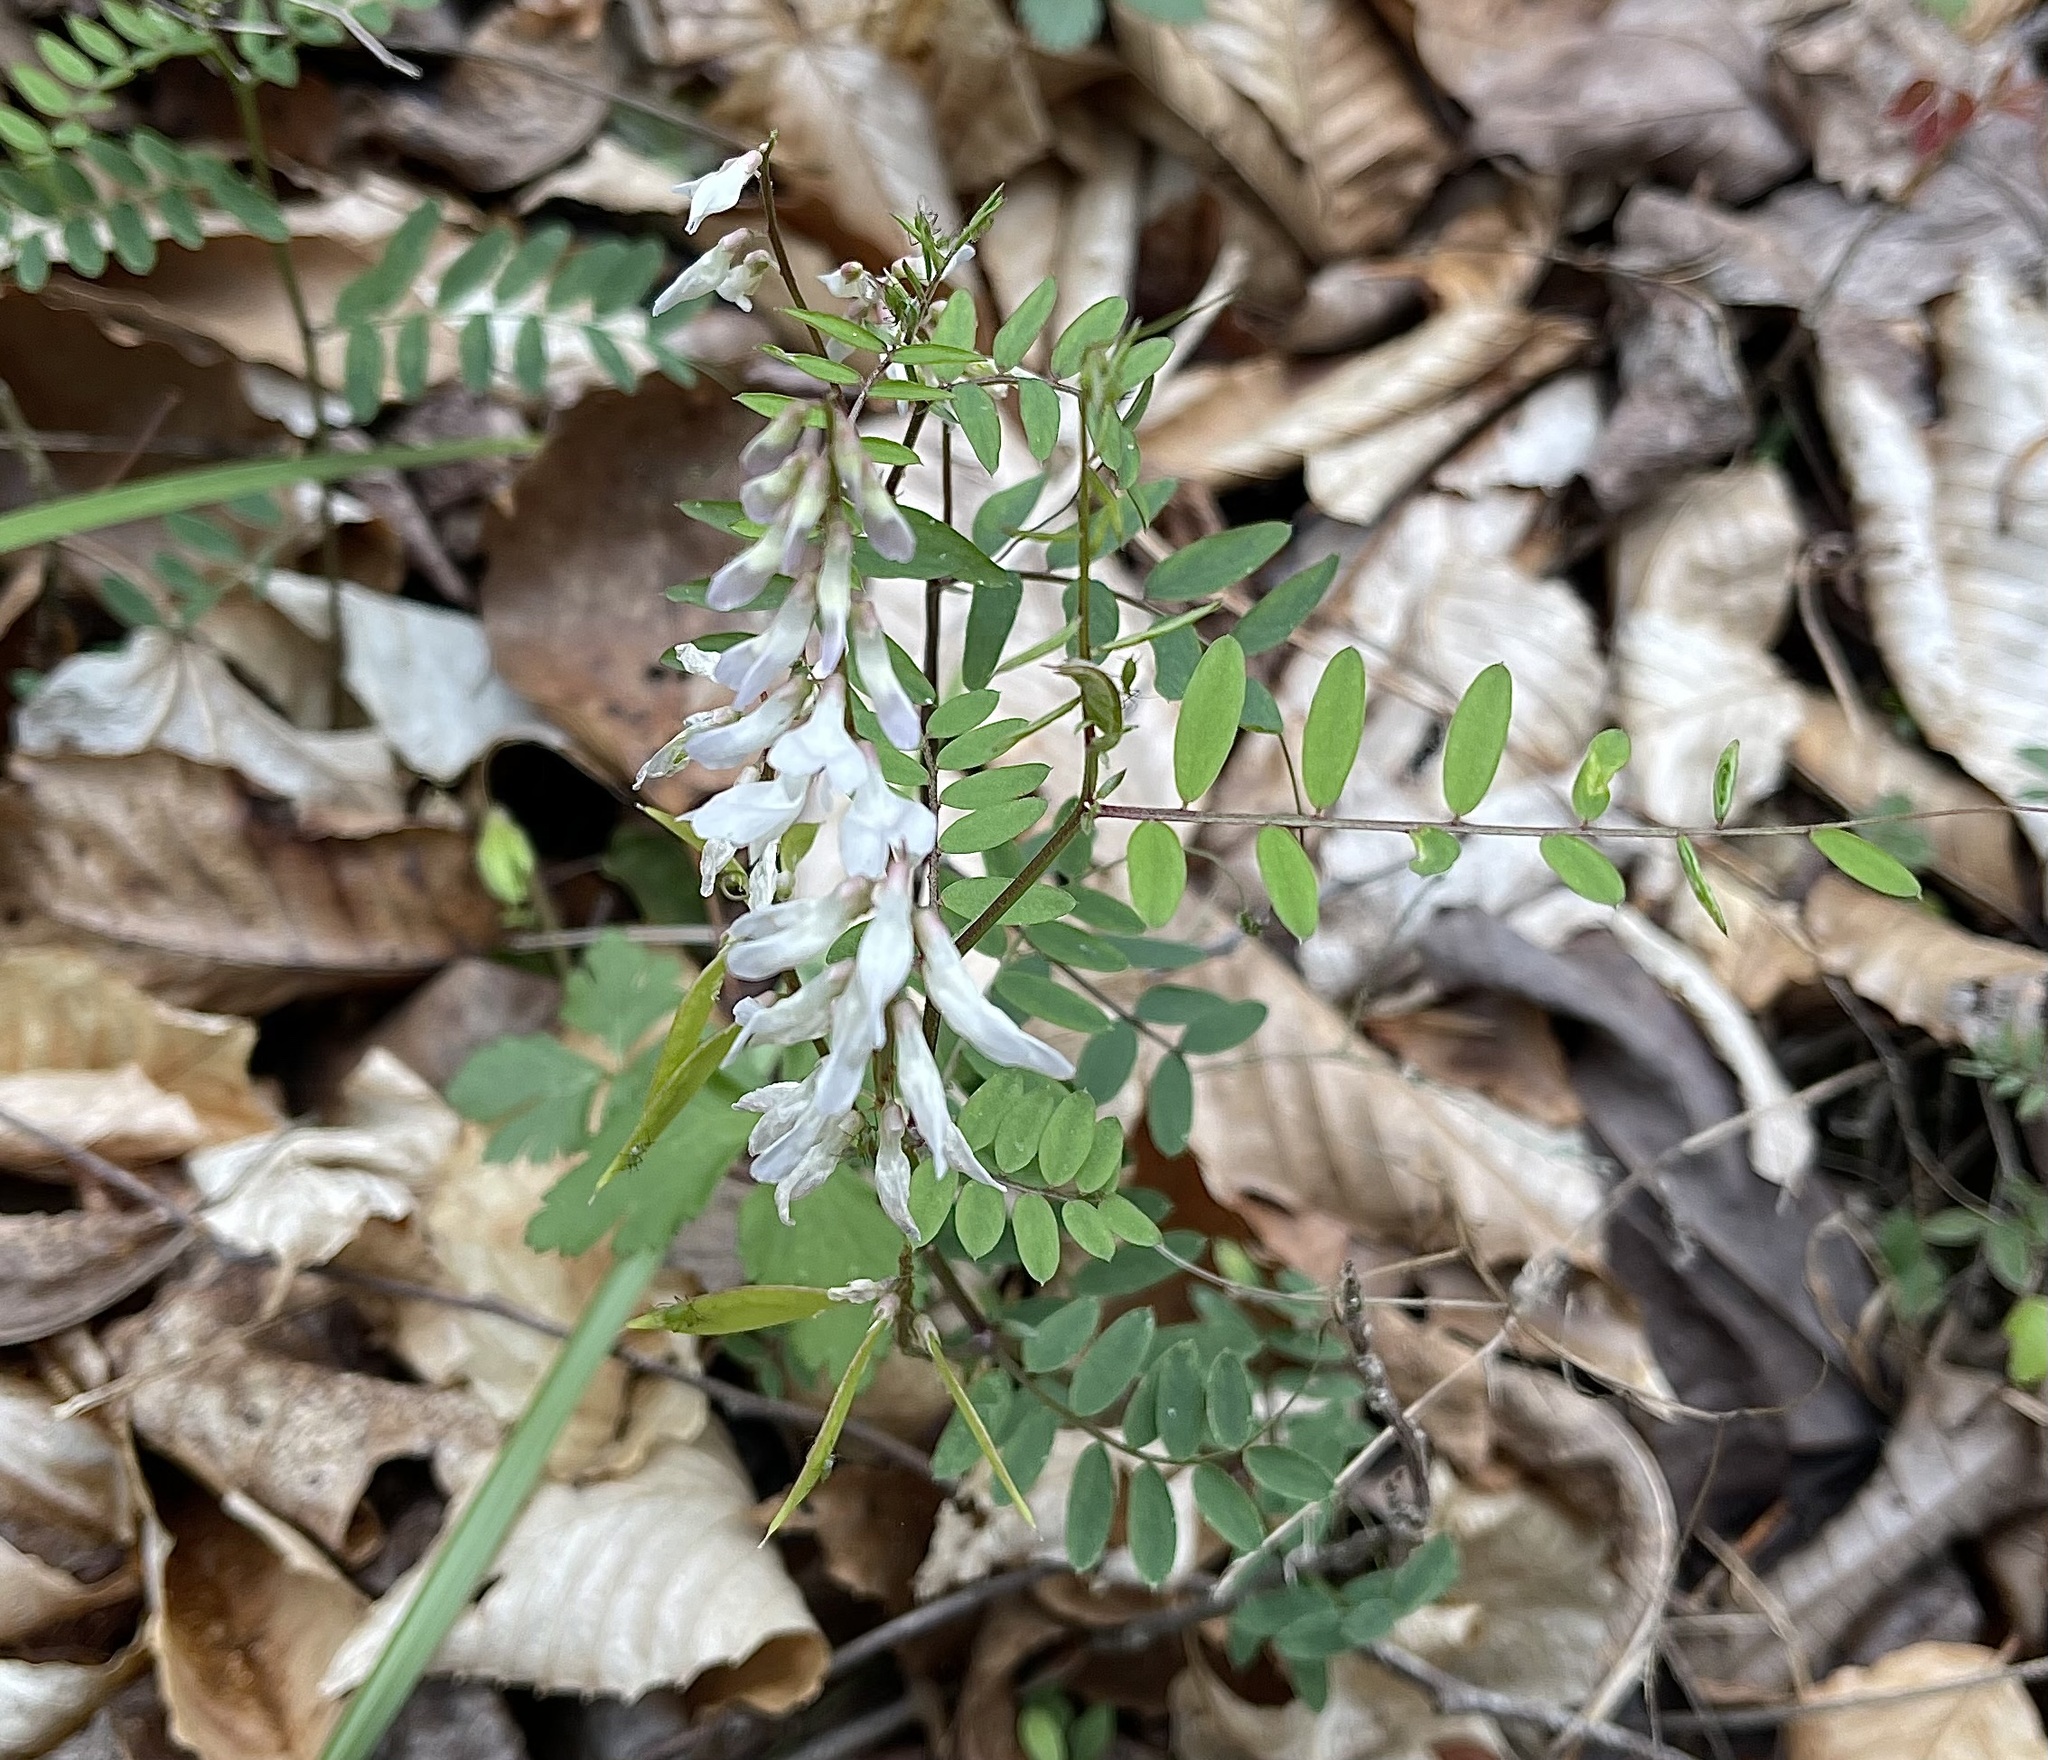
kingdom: Plantae
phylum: Tracheophyta
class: Magnoliopsida
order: Fabales
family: Fabaceae
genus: Vicia
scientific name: Vicia caroliniana
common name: Carolina vetch
